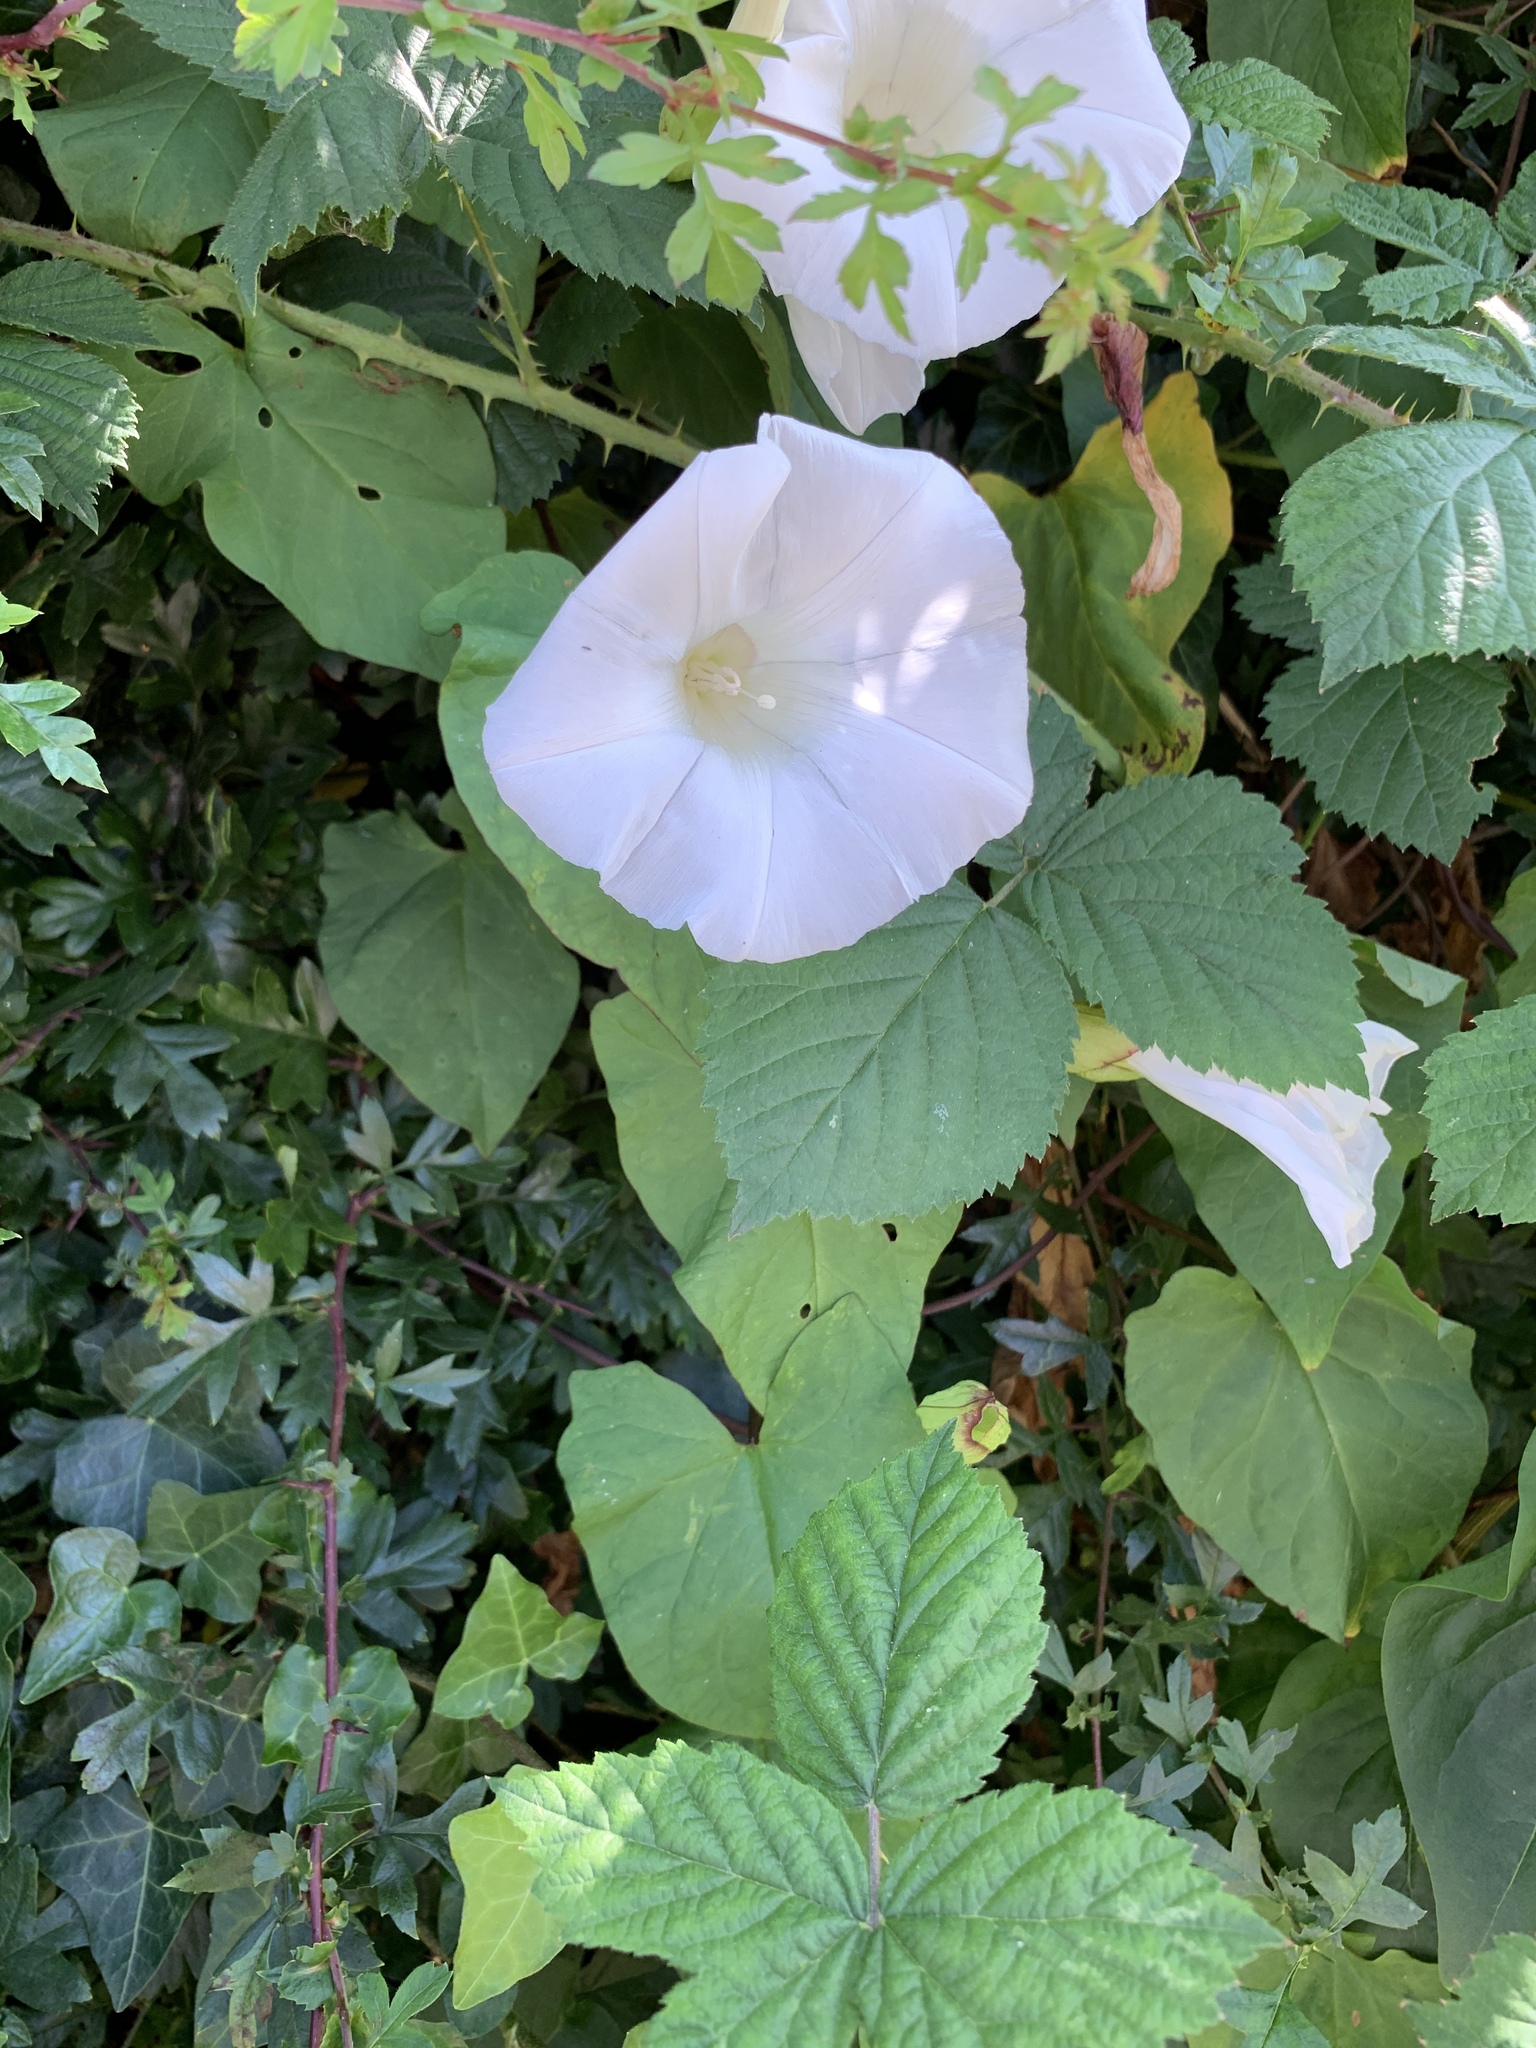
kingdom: Plantae
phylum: Tracheophyta
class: Magnoliopsida
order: Solanales
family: Convolvulaceae
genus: Calystegia
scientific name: Calystegia silvatica
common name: Large bindweed
